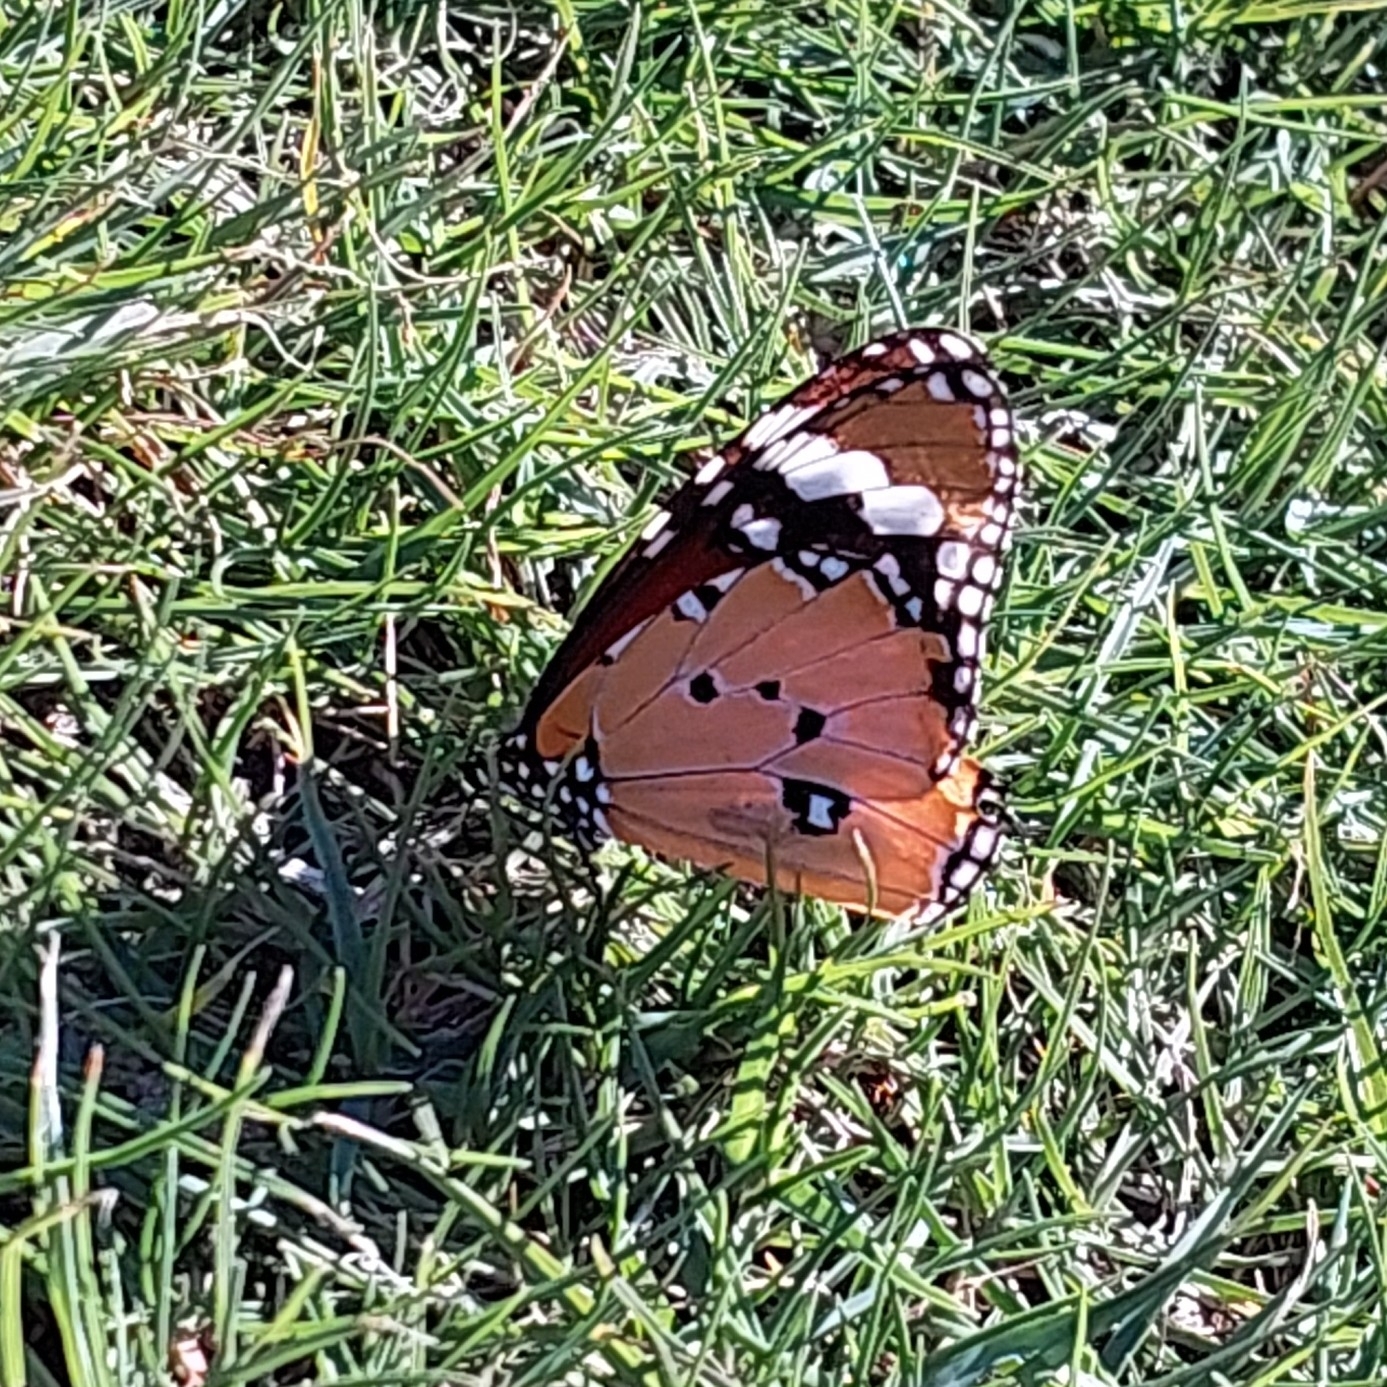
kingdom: Animalia
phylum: Arthropoda
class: Insecta
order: Lepidoptera
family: Nymphalidae
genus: Danaus
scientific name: Danaus chrysippus
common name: Plain tiger
